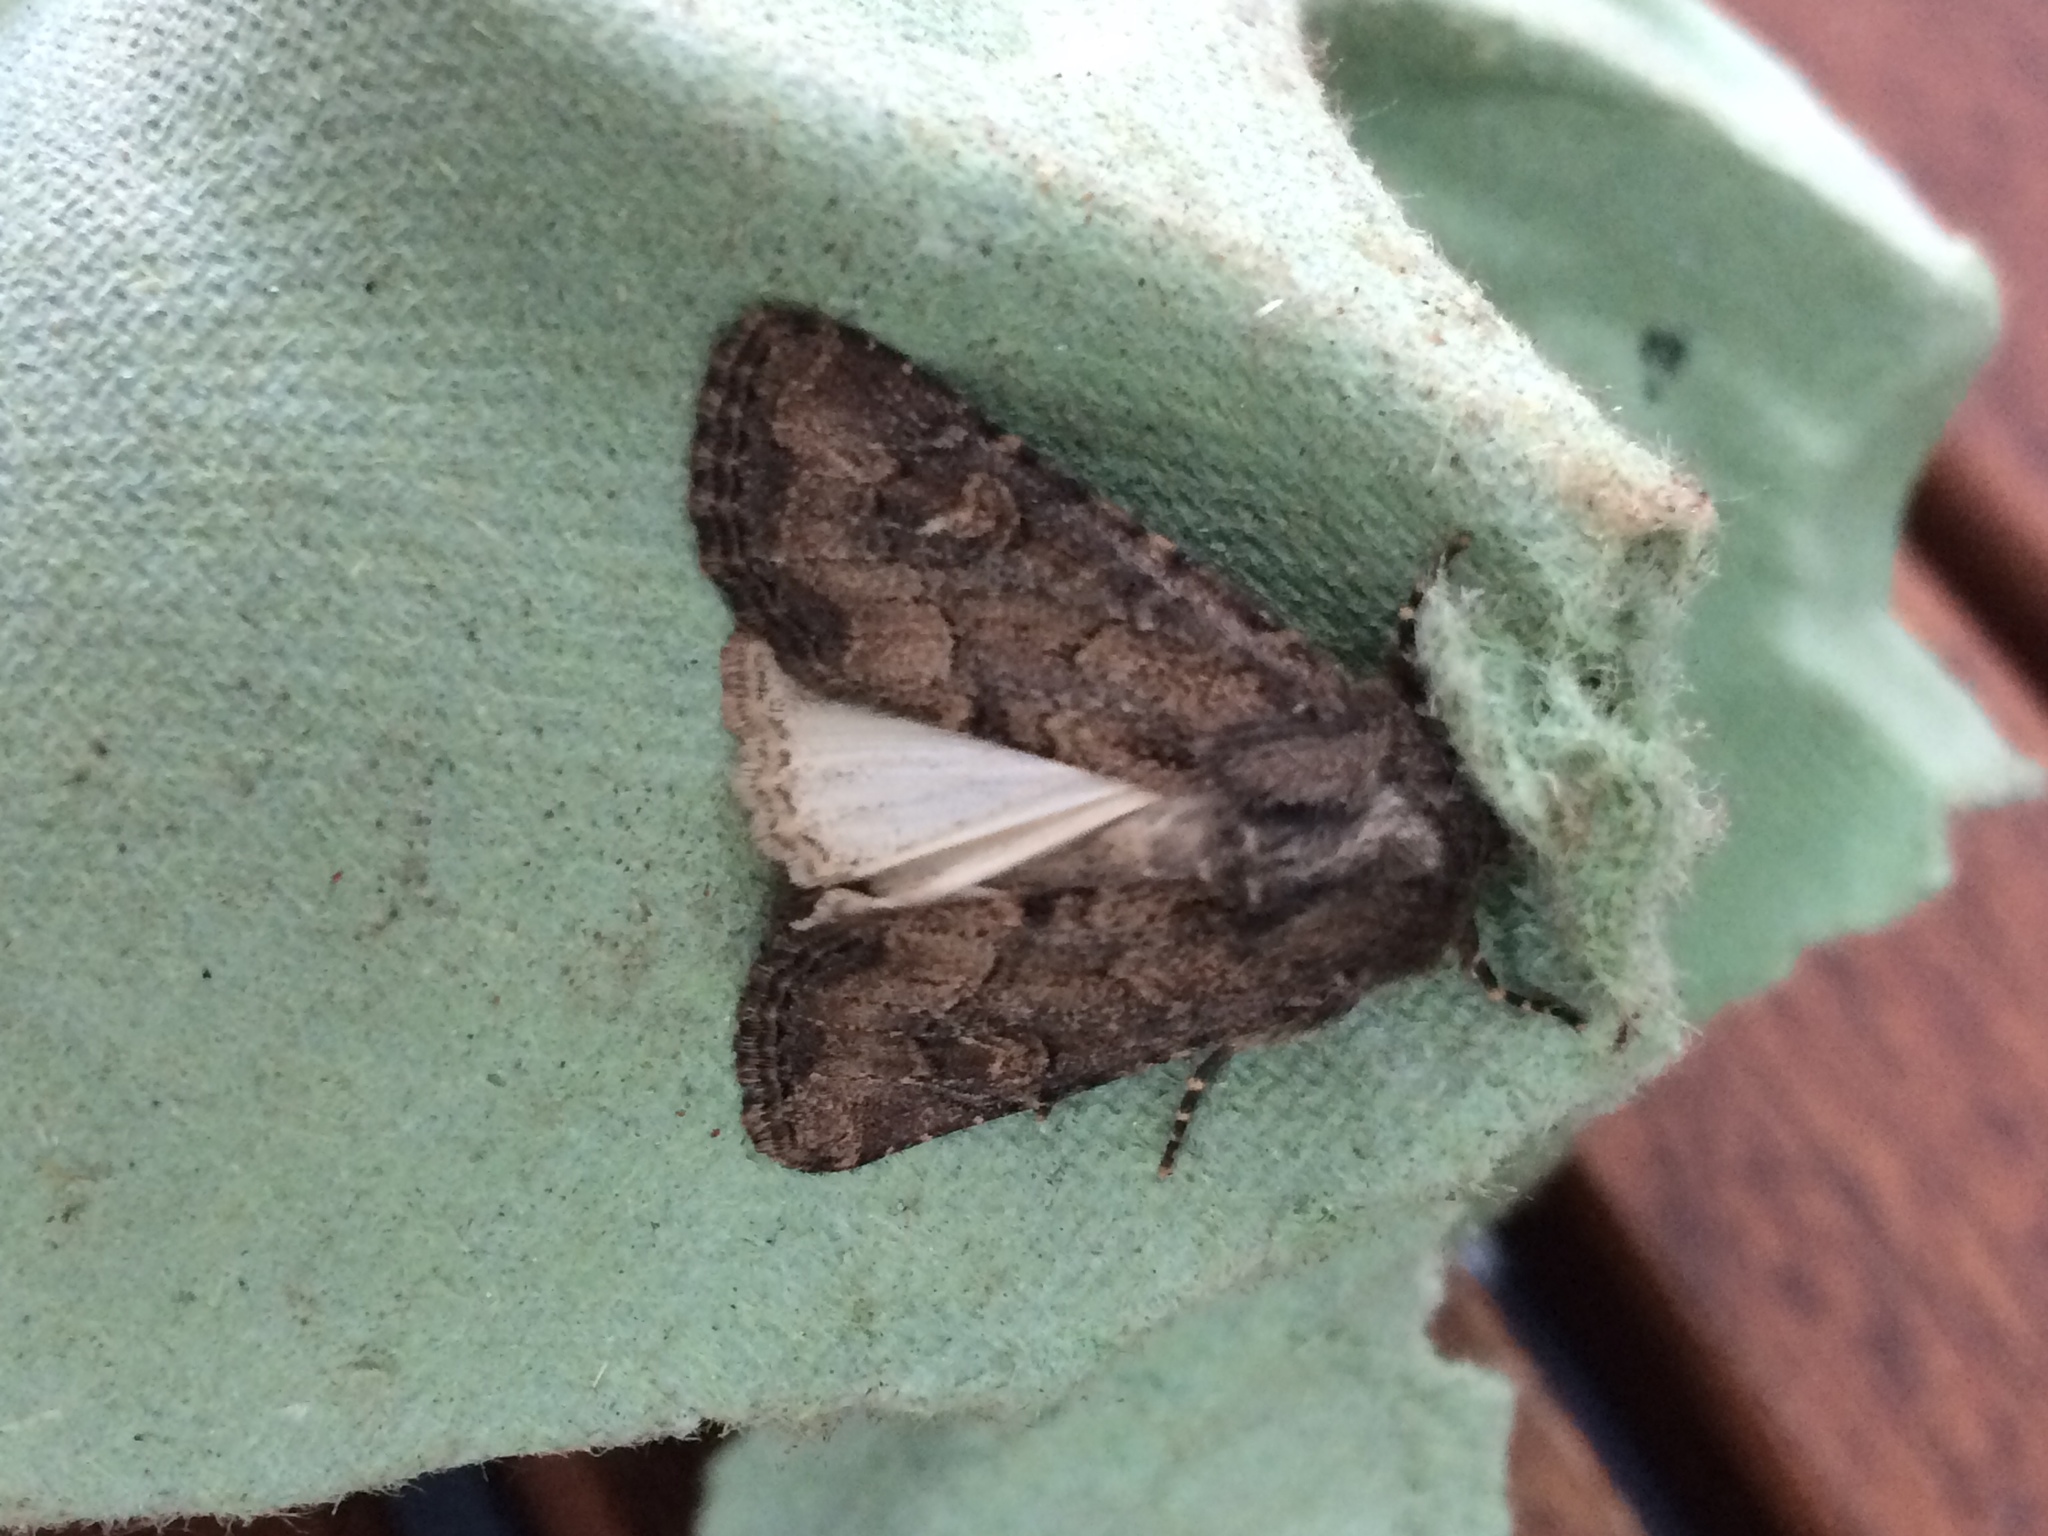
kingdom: Animalia
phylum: Arthropoda
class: Insecta
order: Lepidoptera
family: Noctuidae
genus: Luperina
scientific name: Luperina testacea
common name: Flounced rustic
